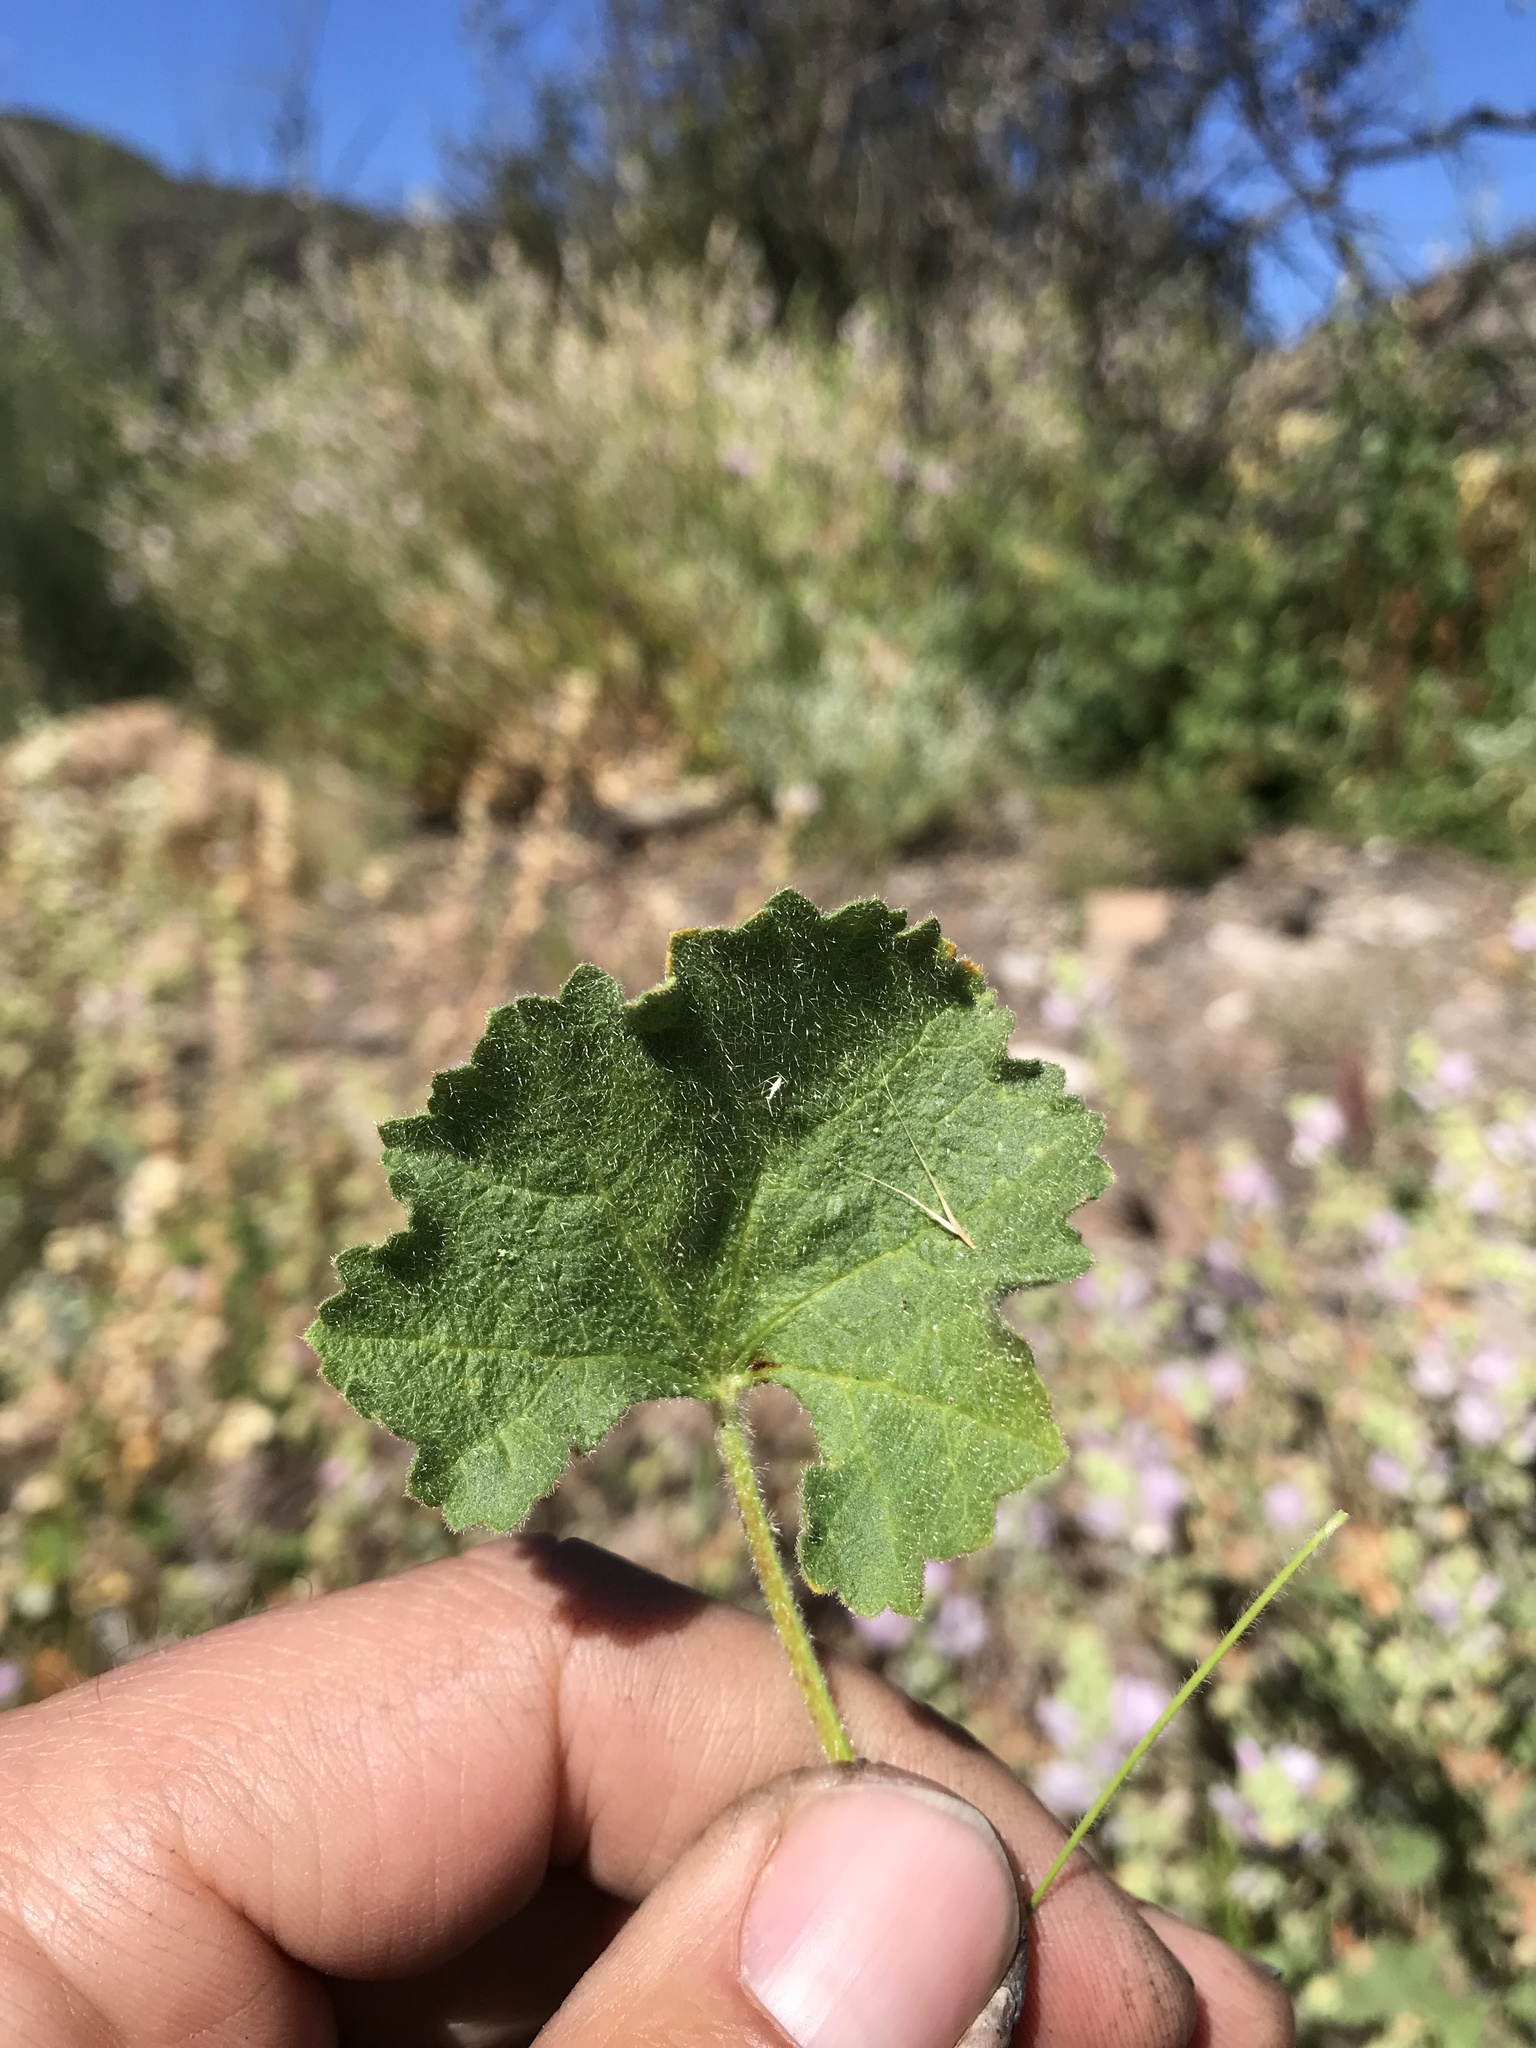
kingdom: Plantae
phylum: Tracheophyta
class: Magnoliopsida
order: Malvales
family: Malvaceae
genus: Sidalcea
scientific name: Sidalcea hickmanii
